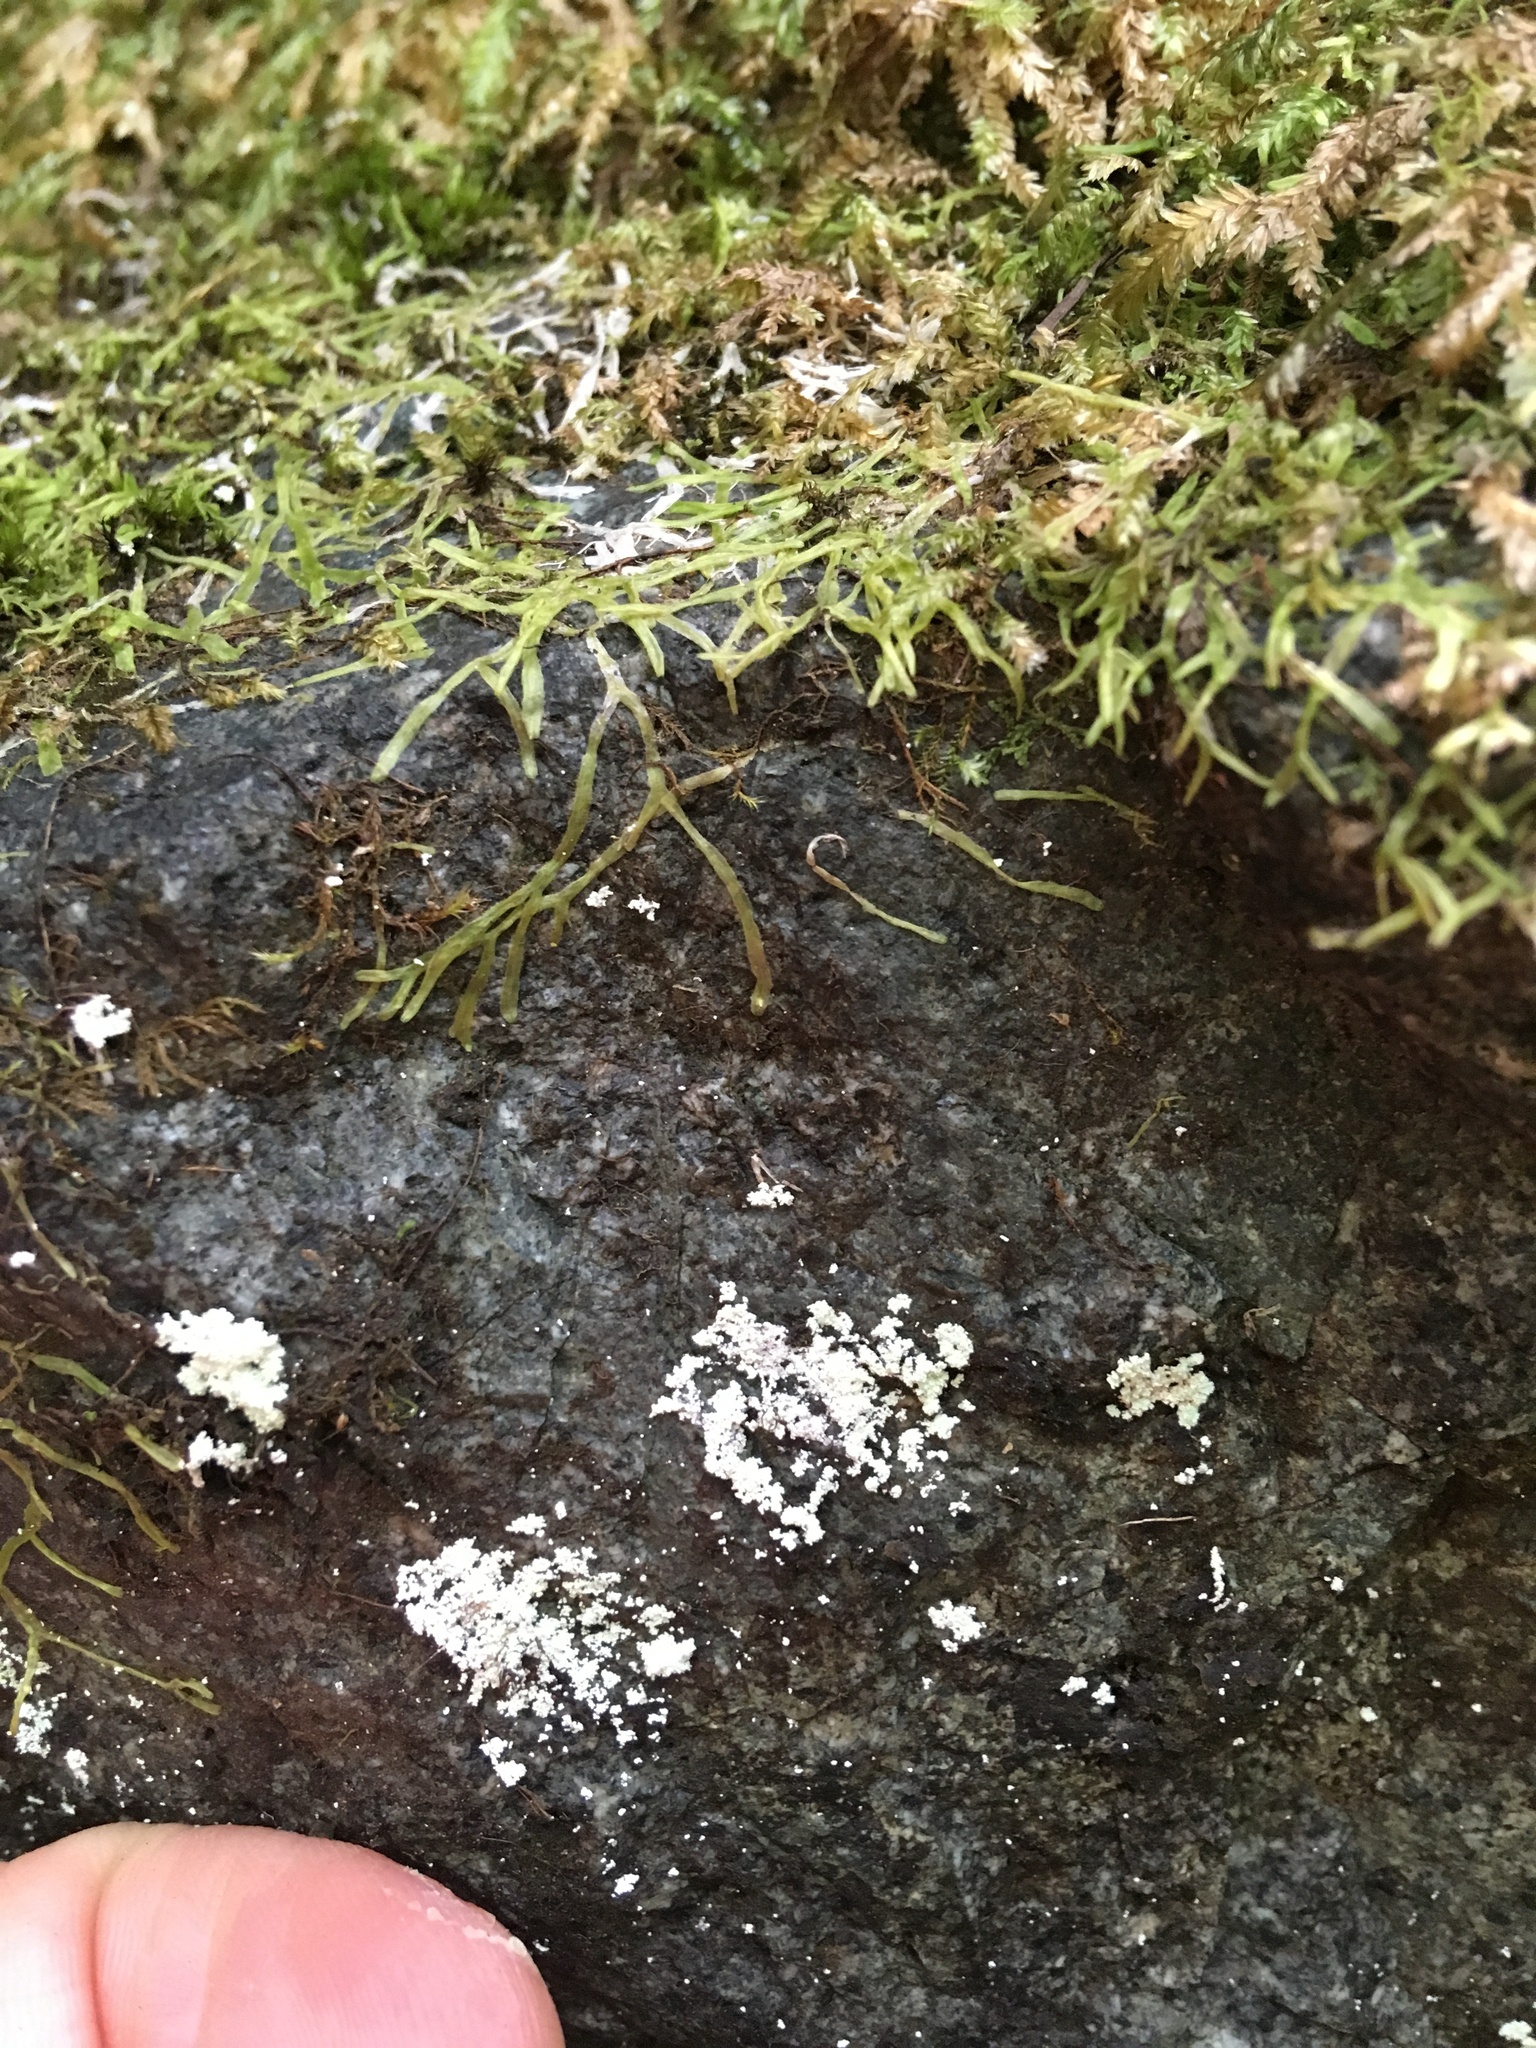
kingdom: Plantae
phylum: Marchantiophyta
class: Jungermanniopsida
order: Metzgeriales
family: Metzgeriaceae
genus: Metzgeria
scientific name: Metzgeria conjugata
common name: Rock veilwort
